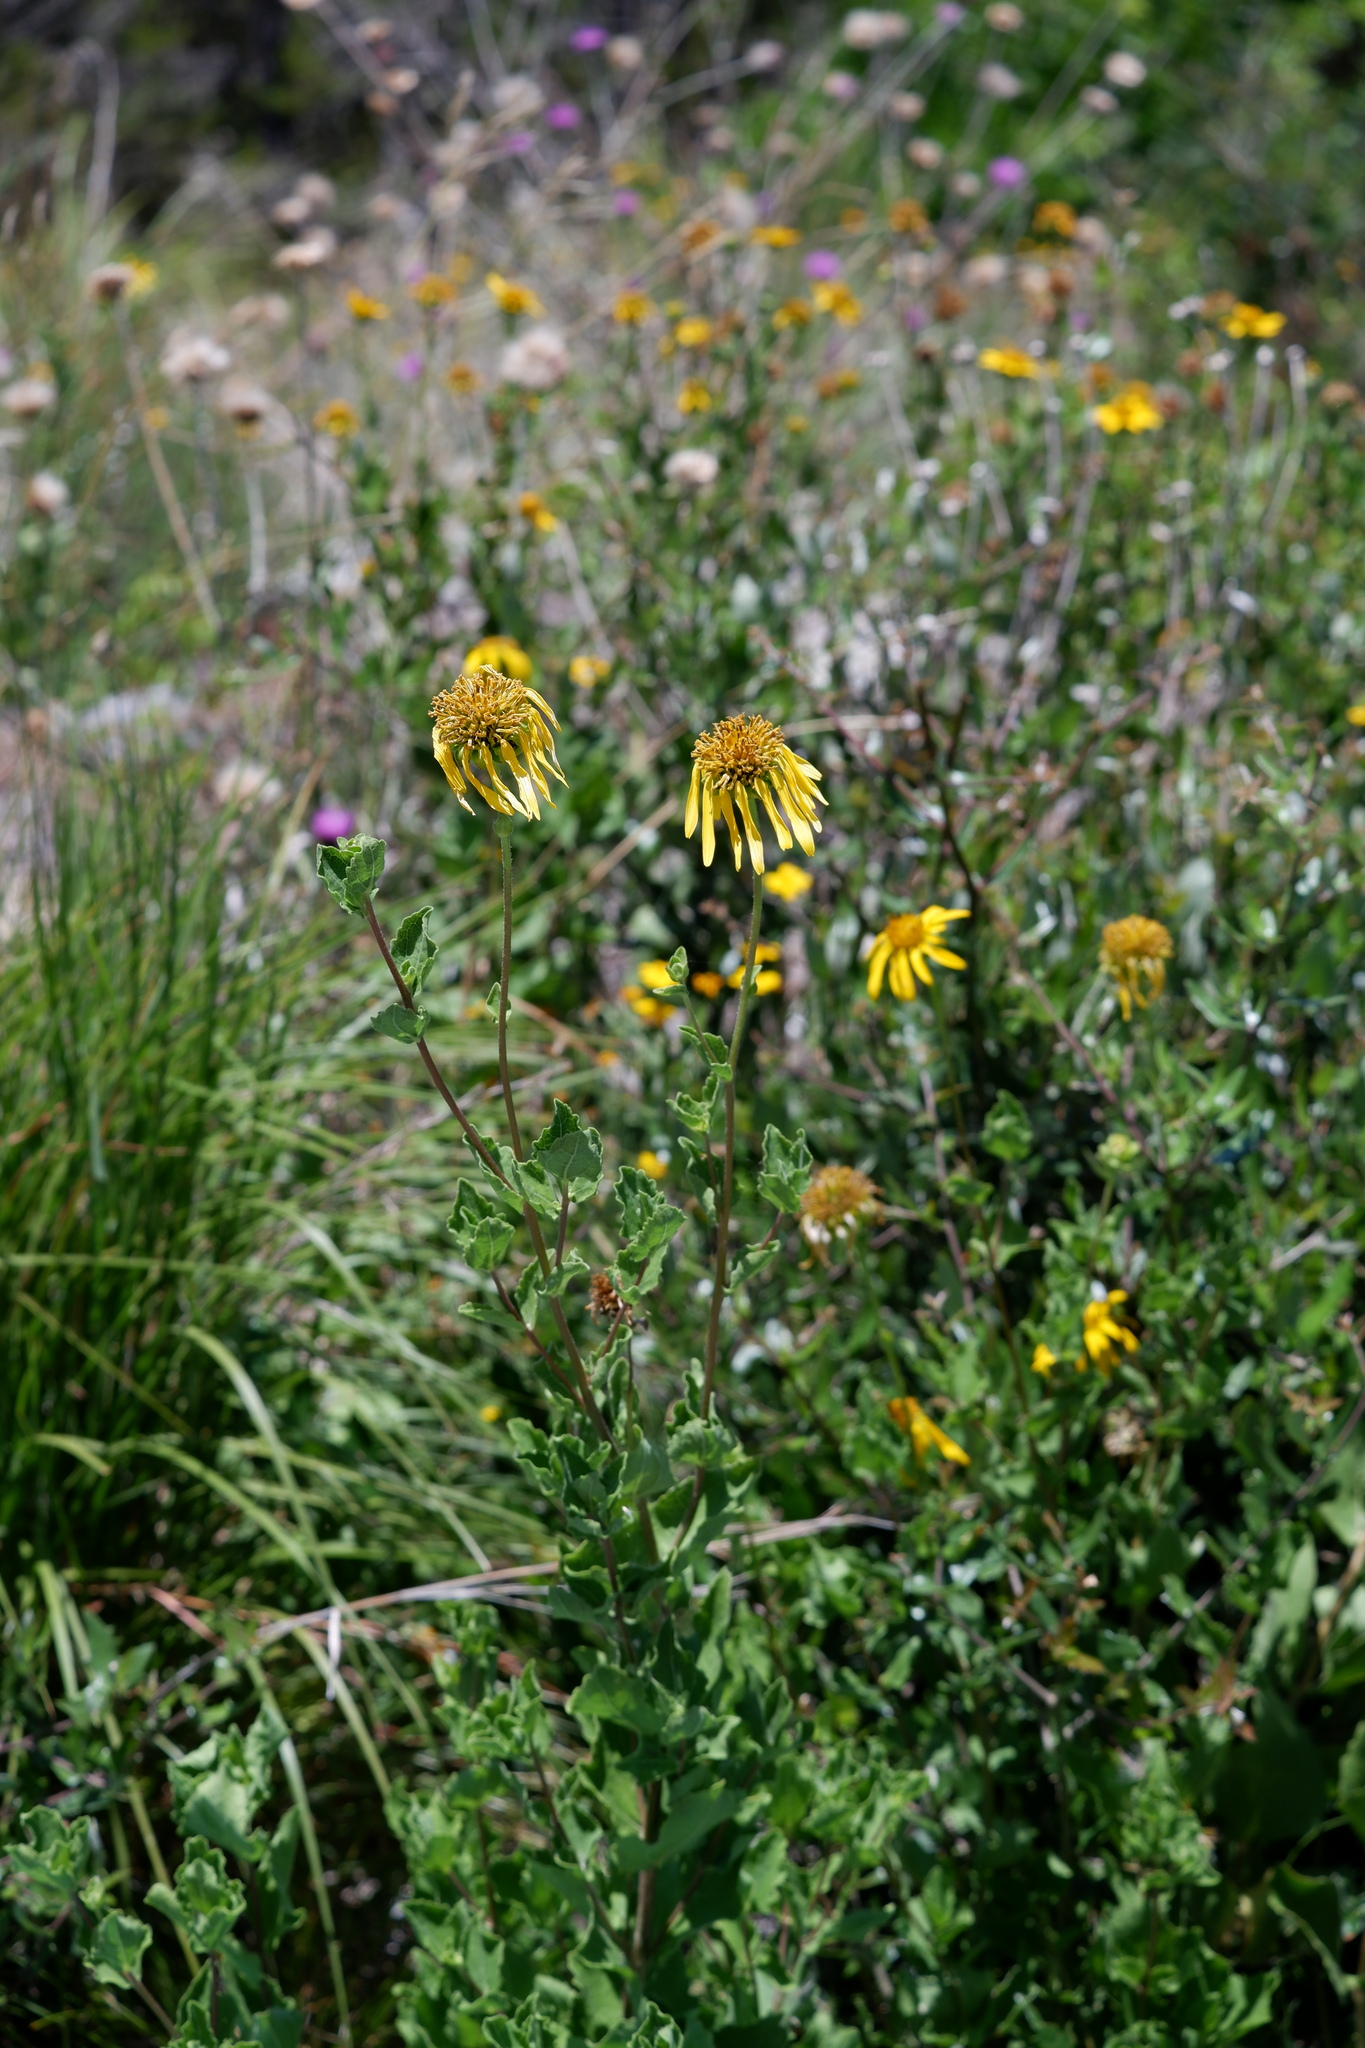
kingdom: Plantae
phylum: Tracheophyta
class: Magnoliopsida
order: Asterales
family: Asteraceae
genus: Tetragonotheca
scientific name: Tetragonotheca texana
